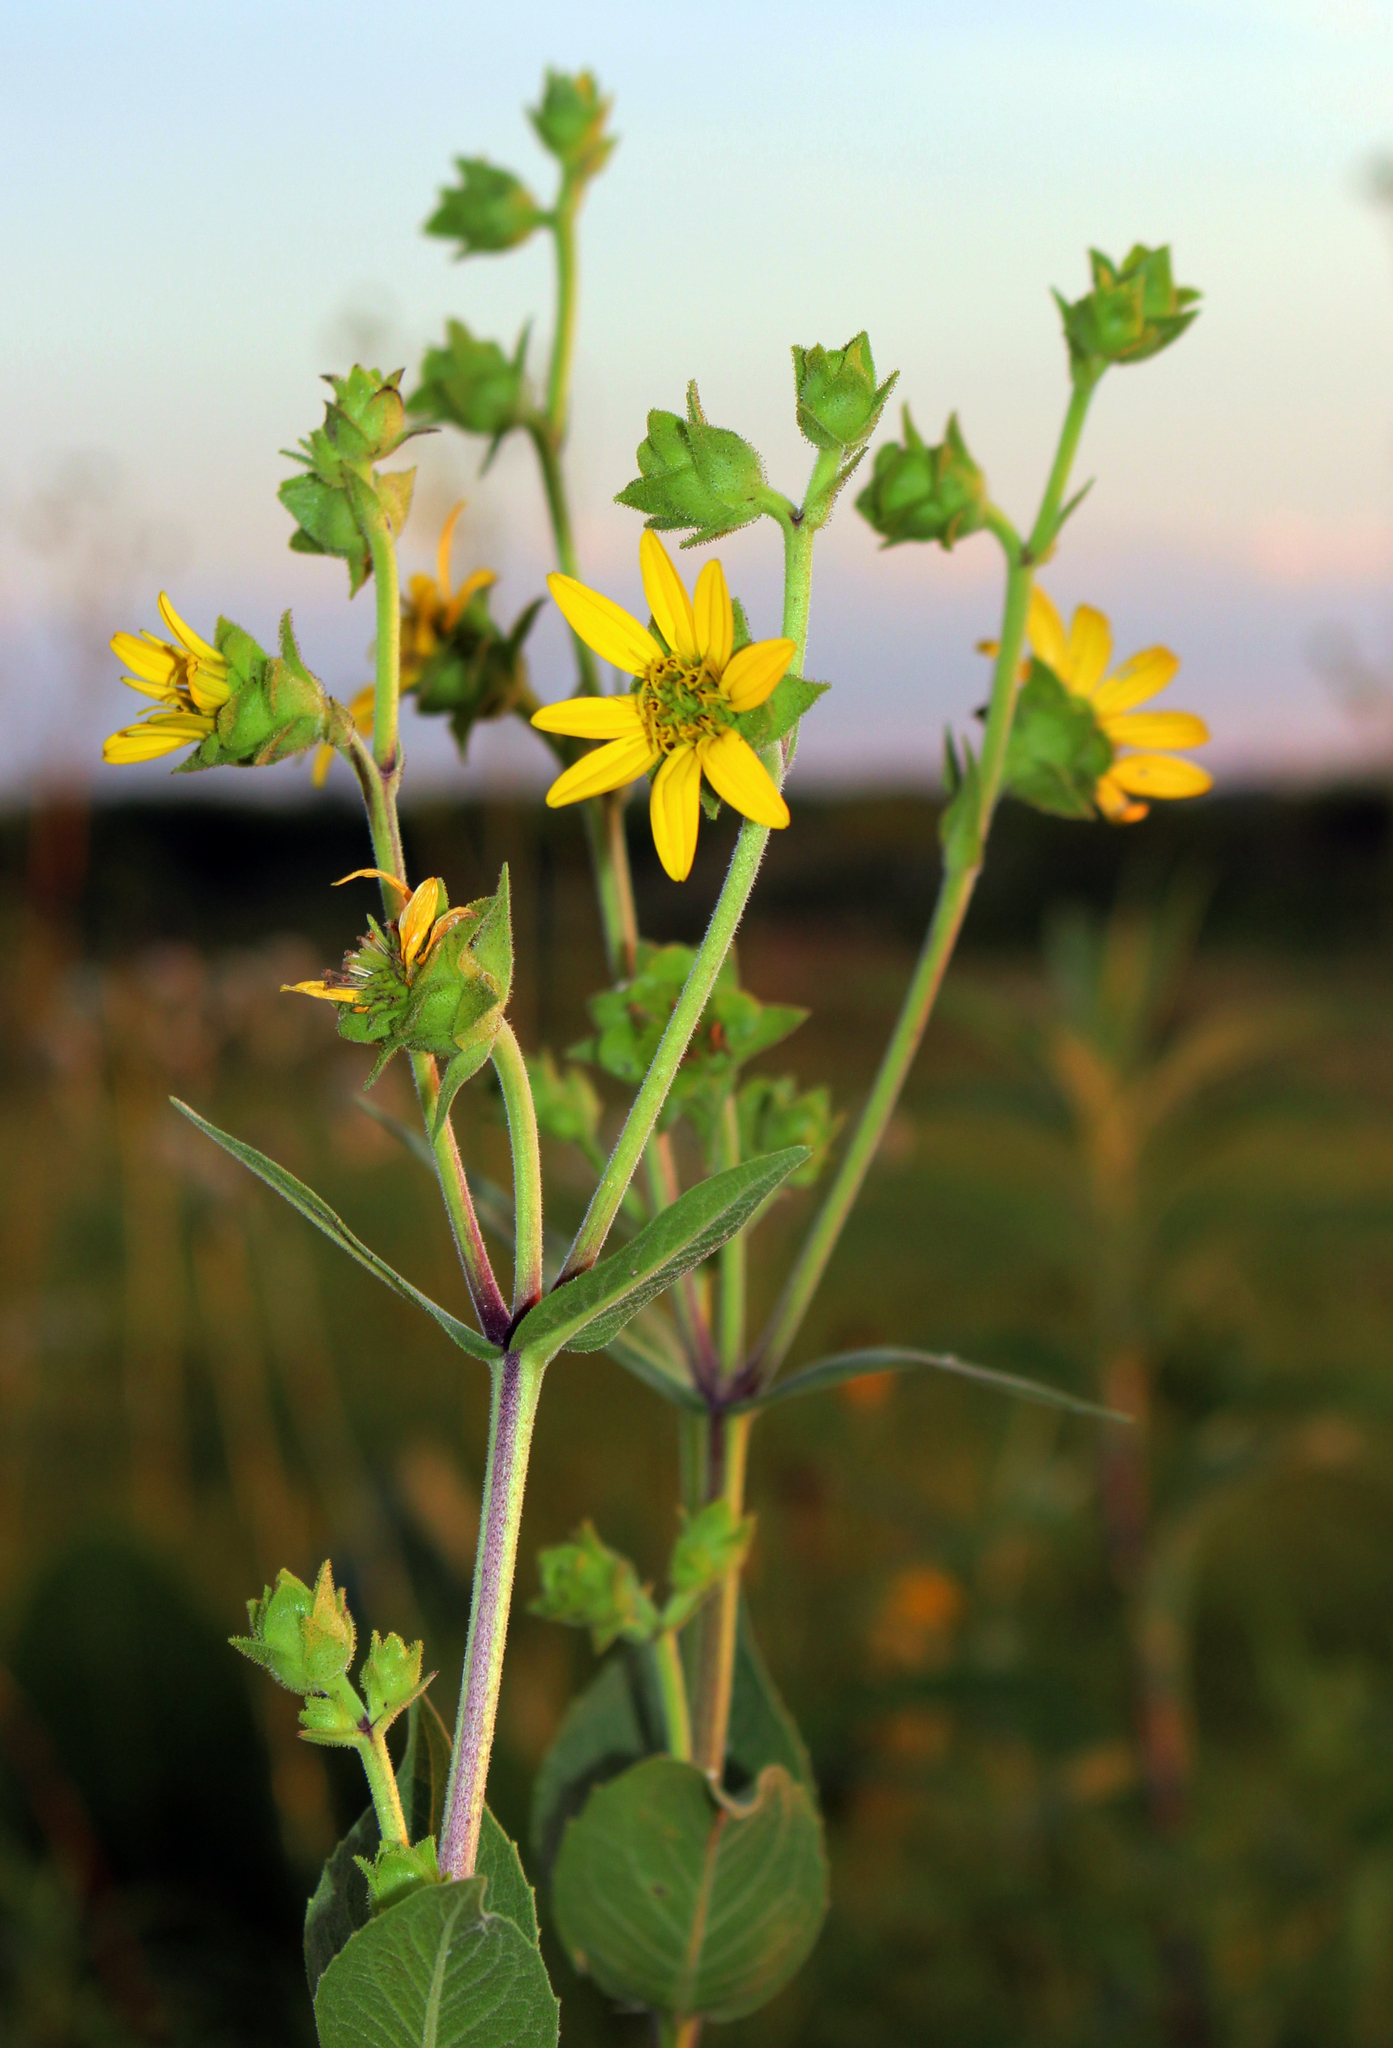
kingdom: Plantae
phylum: Tracheophyta
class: Magnoliopsida
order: Asterales
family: Asteraceae
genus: Silphium
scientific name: Silphium integrifolium
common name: Whole-leaf rosinweed
